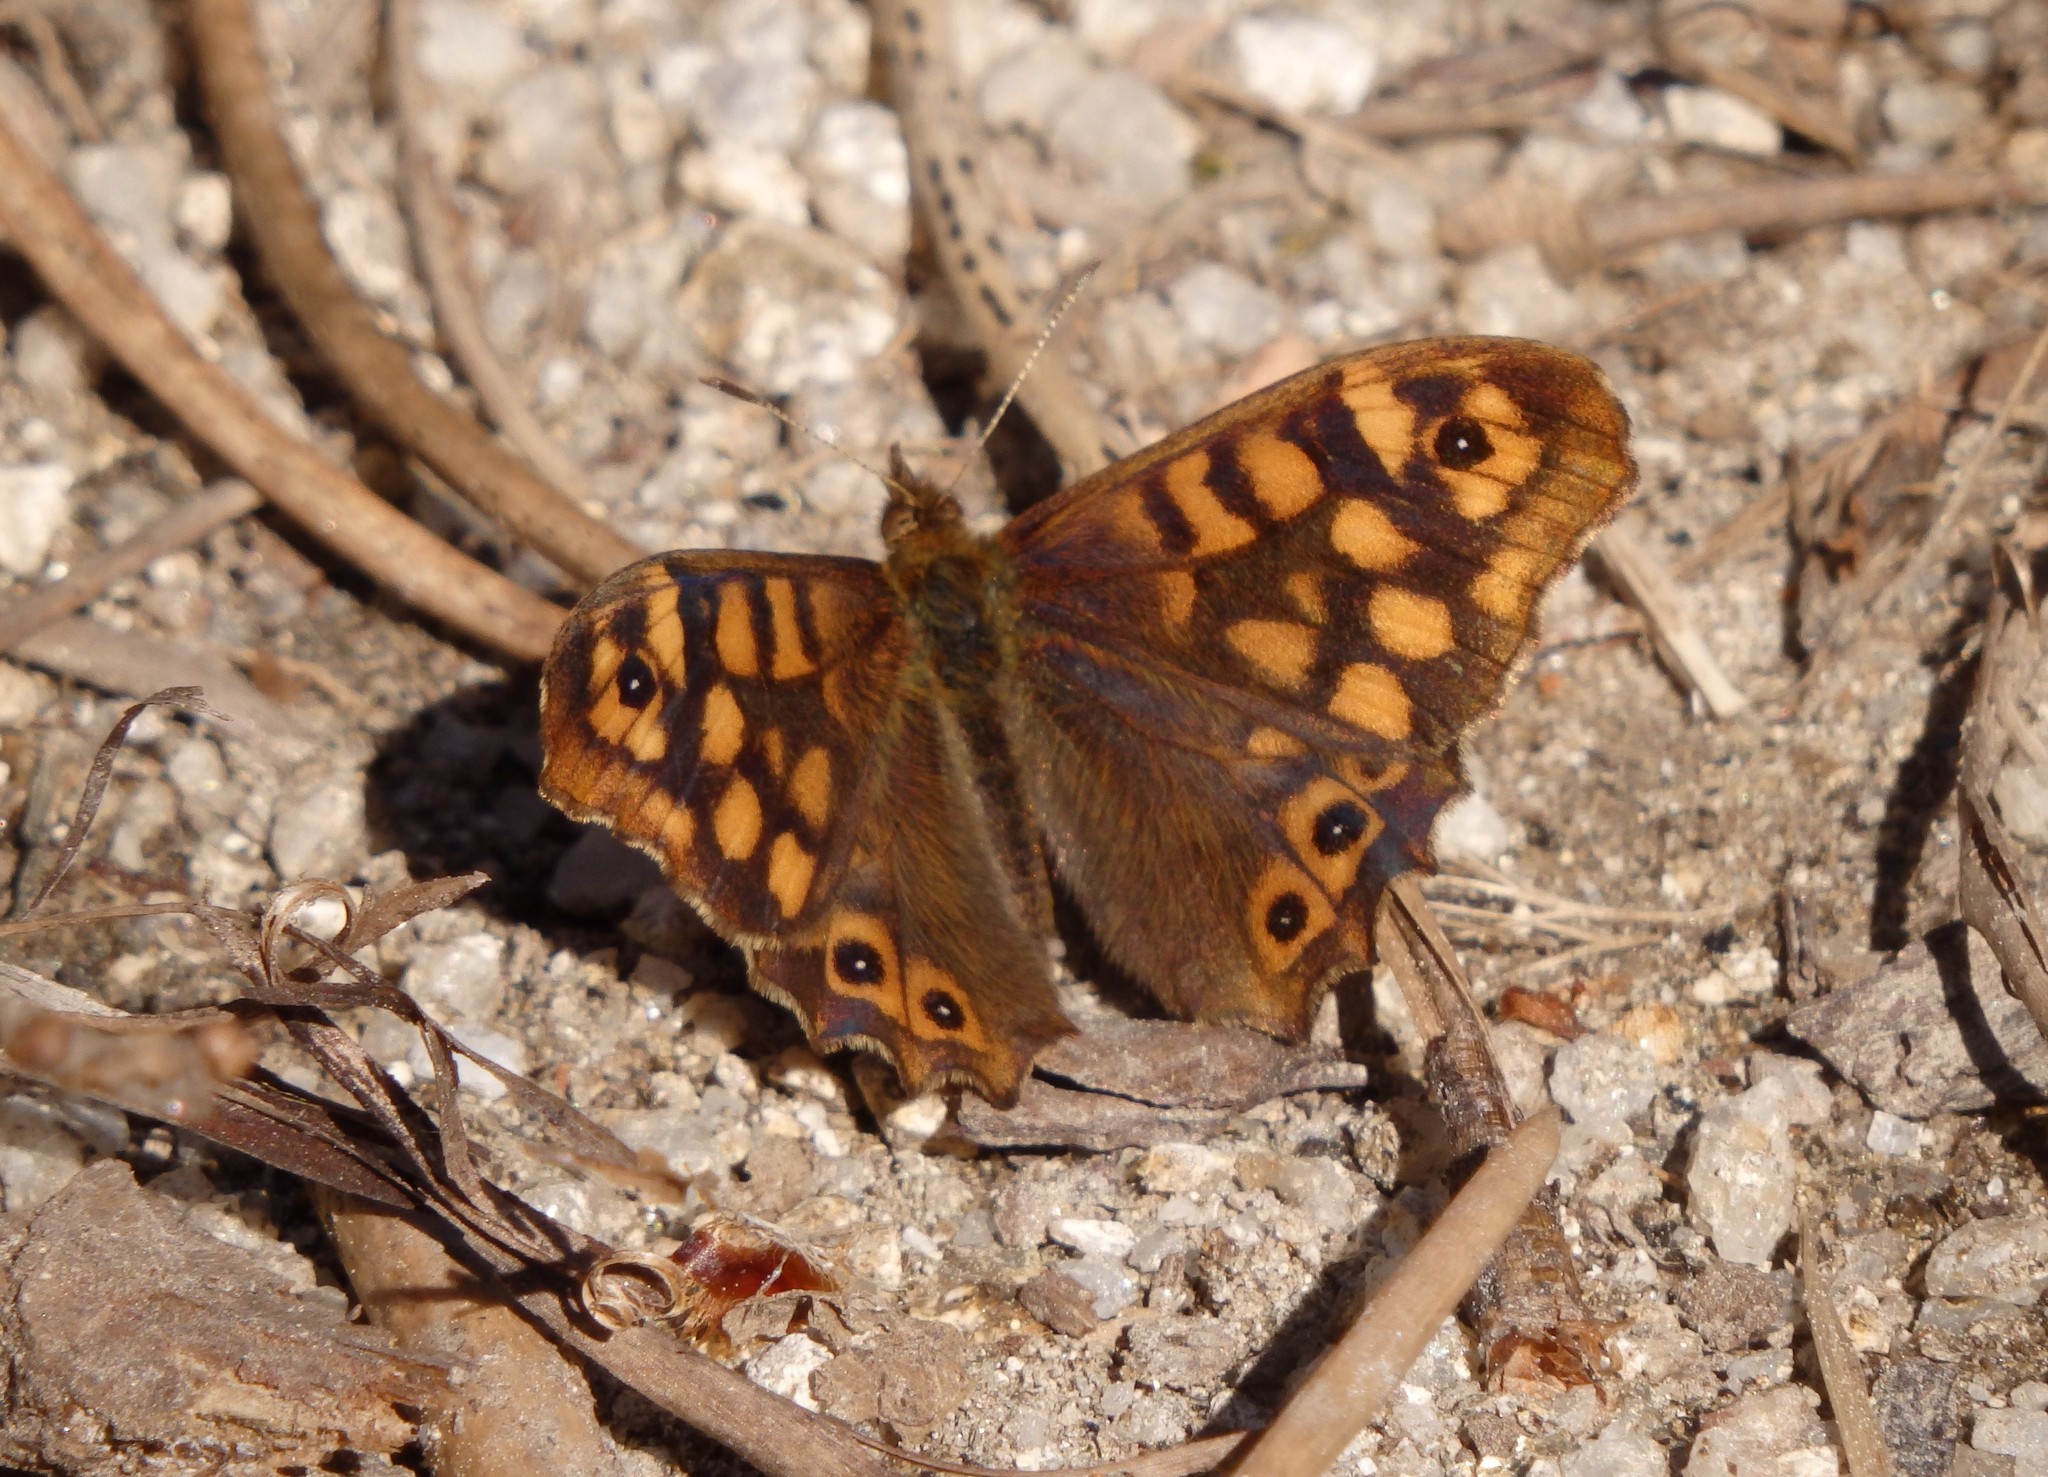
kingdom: Animalia
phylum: Arthropoda
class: Insecta
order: Lepidoptera
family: Nymphalidae
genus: Pararge
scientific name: Pararge aegeria
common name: Speckled wood
